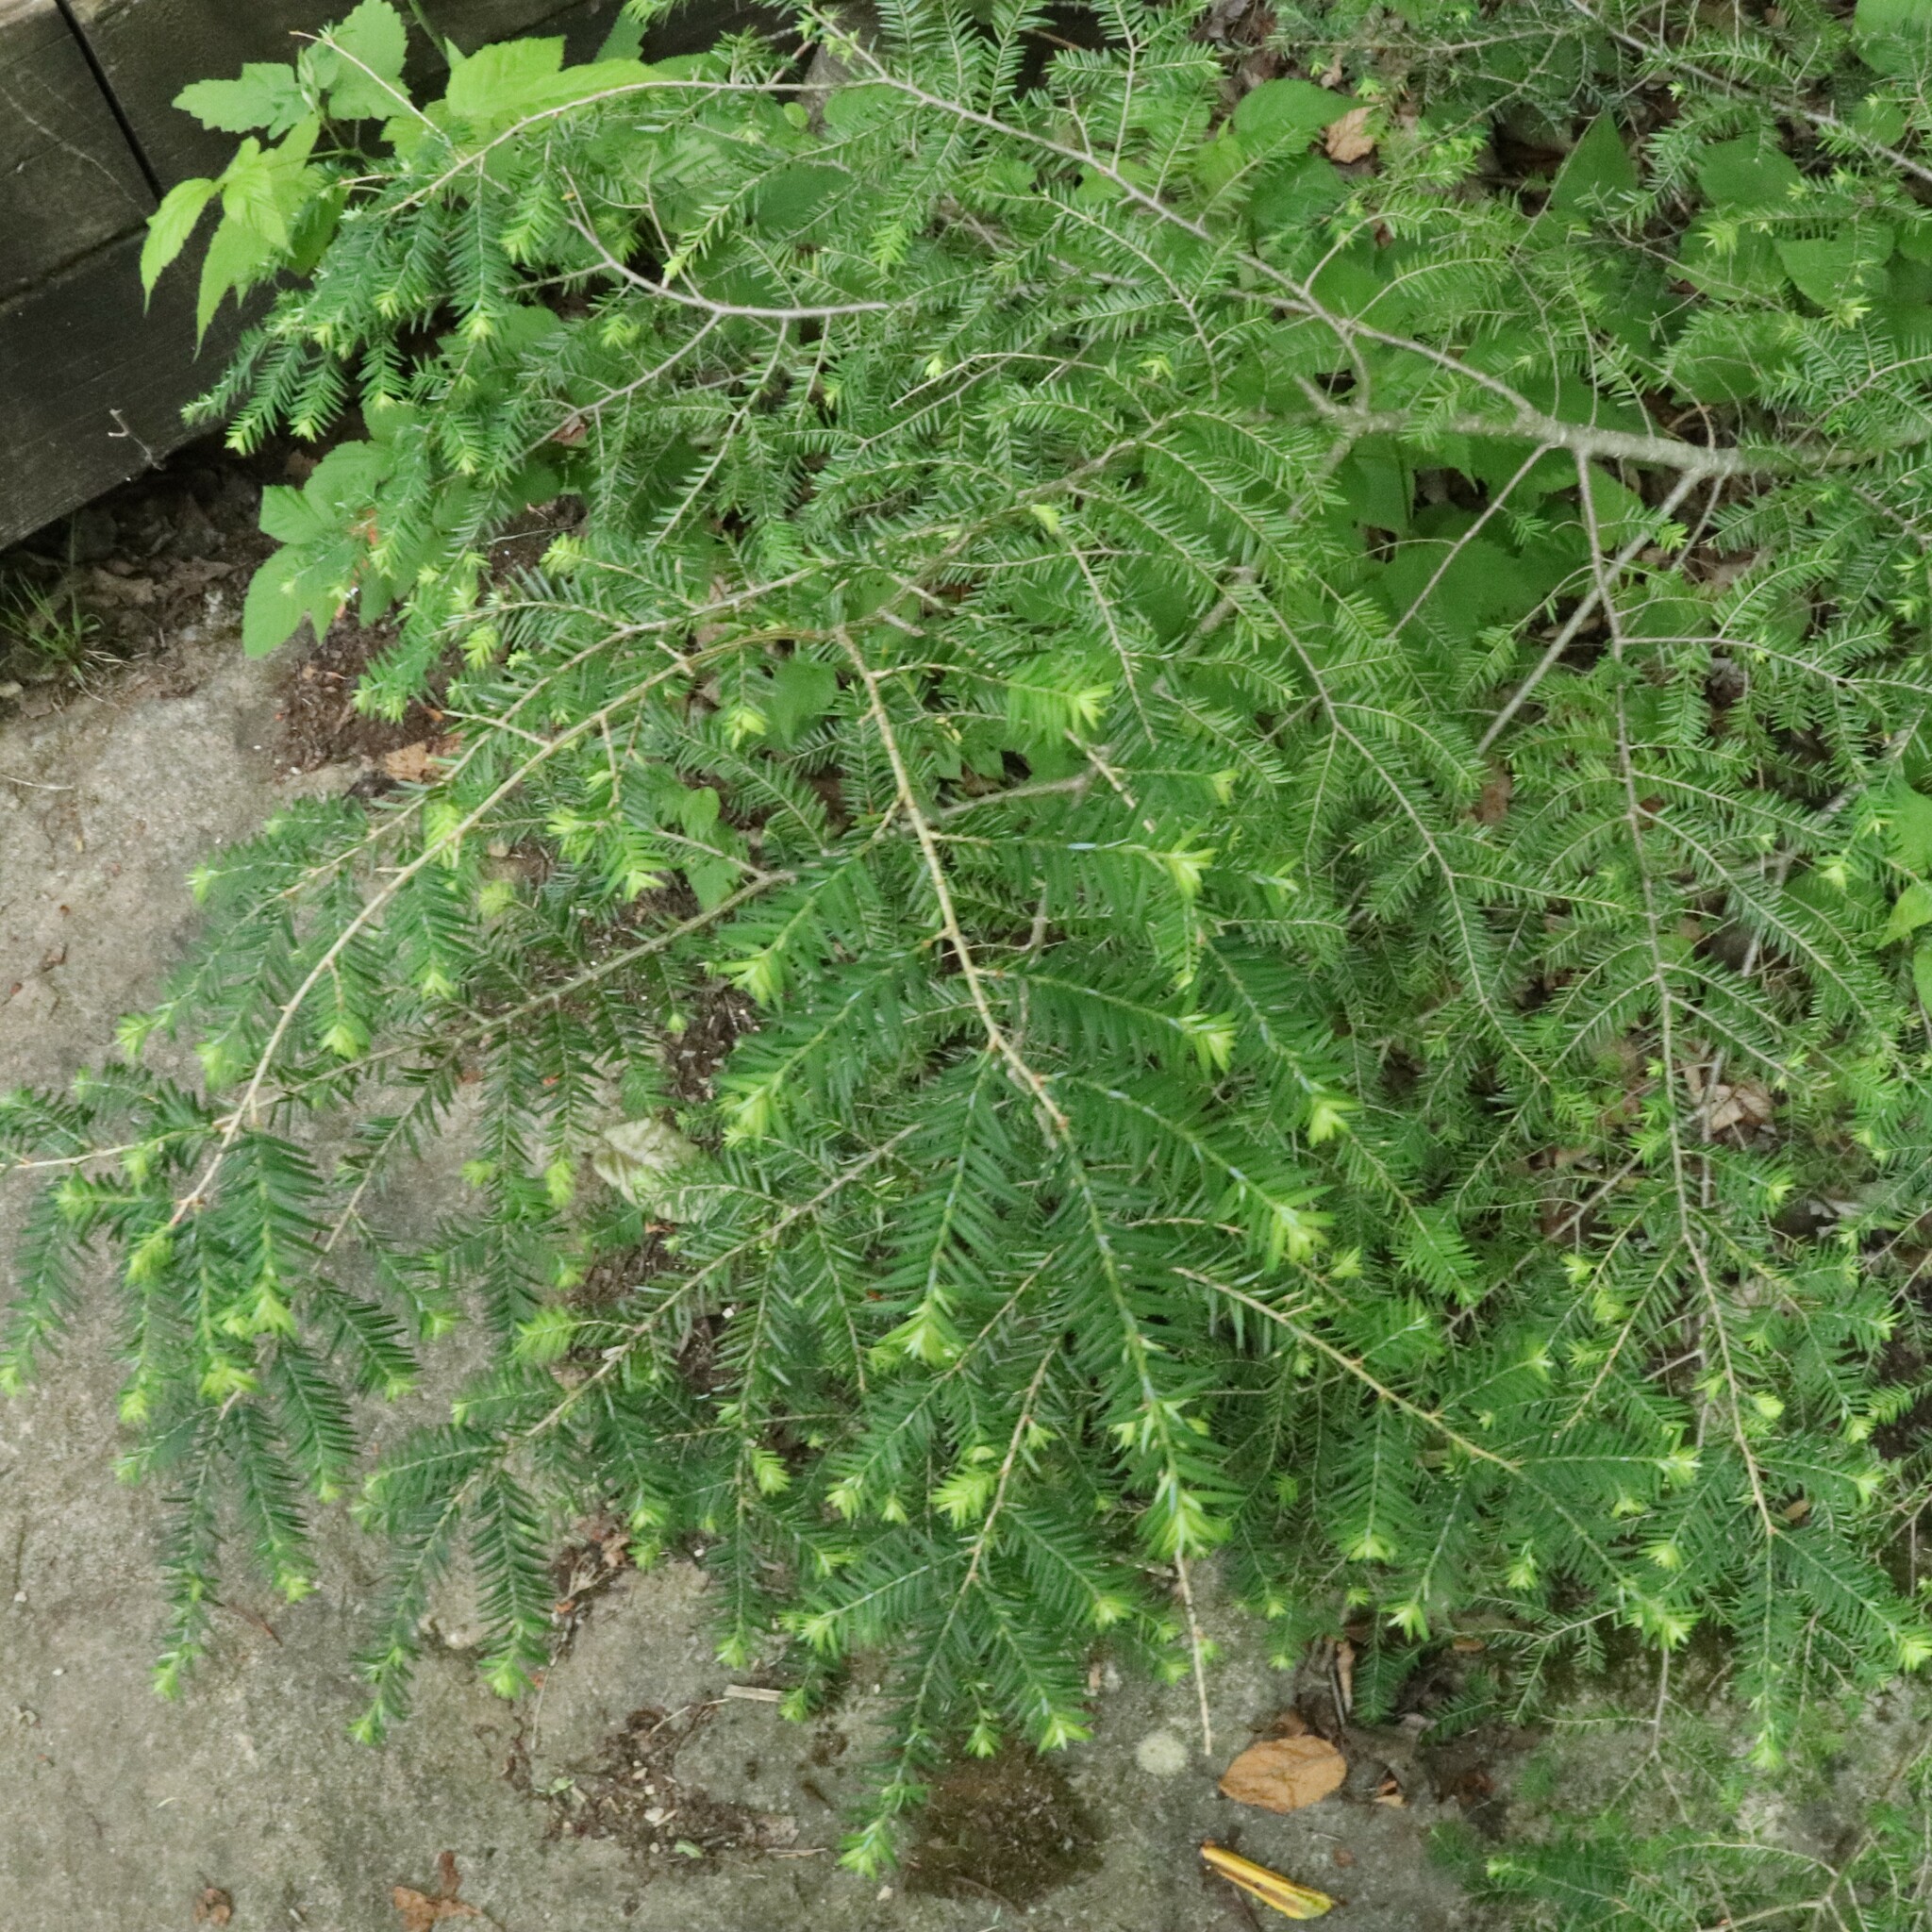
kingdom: Plantae
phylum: Tracheophyta
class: Pinopsida
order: Pinales
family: Pinaceae
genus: Tsuga
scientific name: Tsuga canadensis
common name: Eastern hemlock
